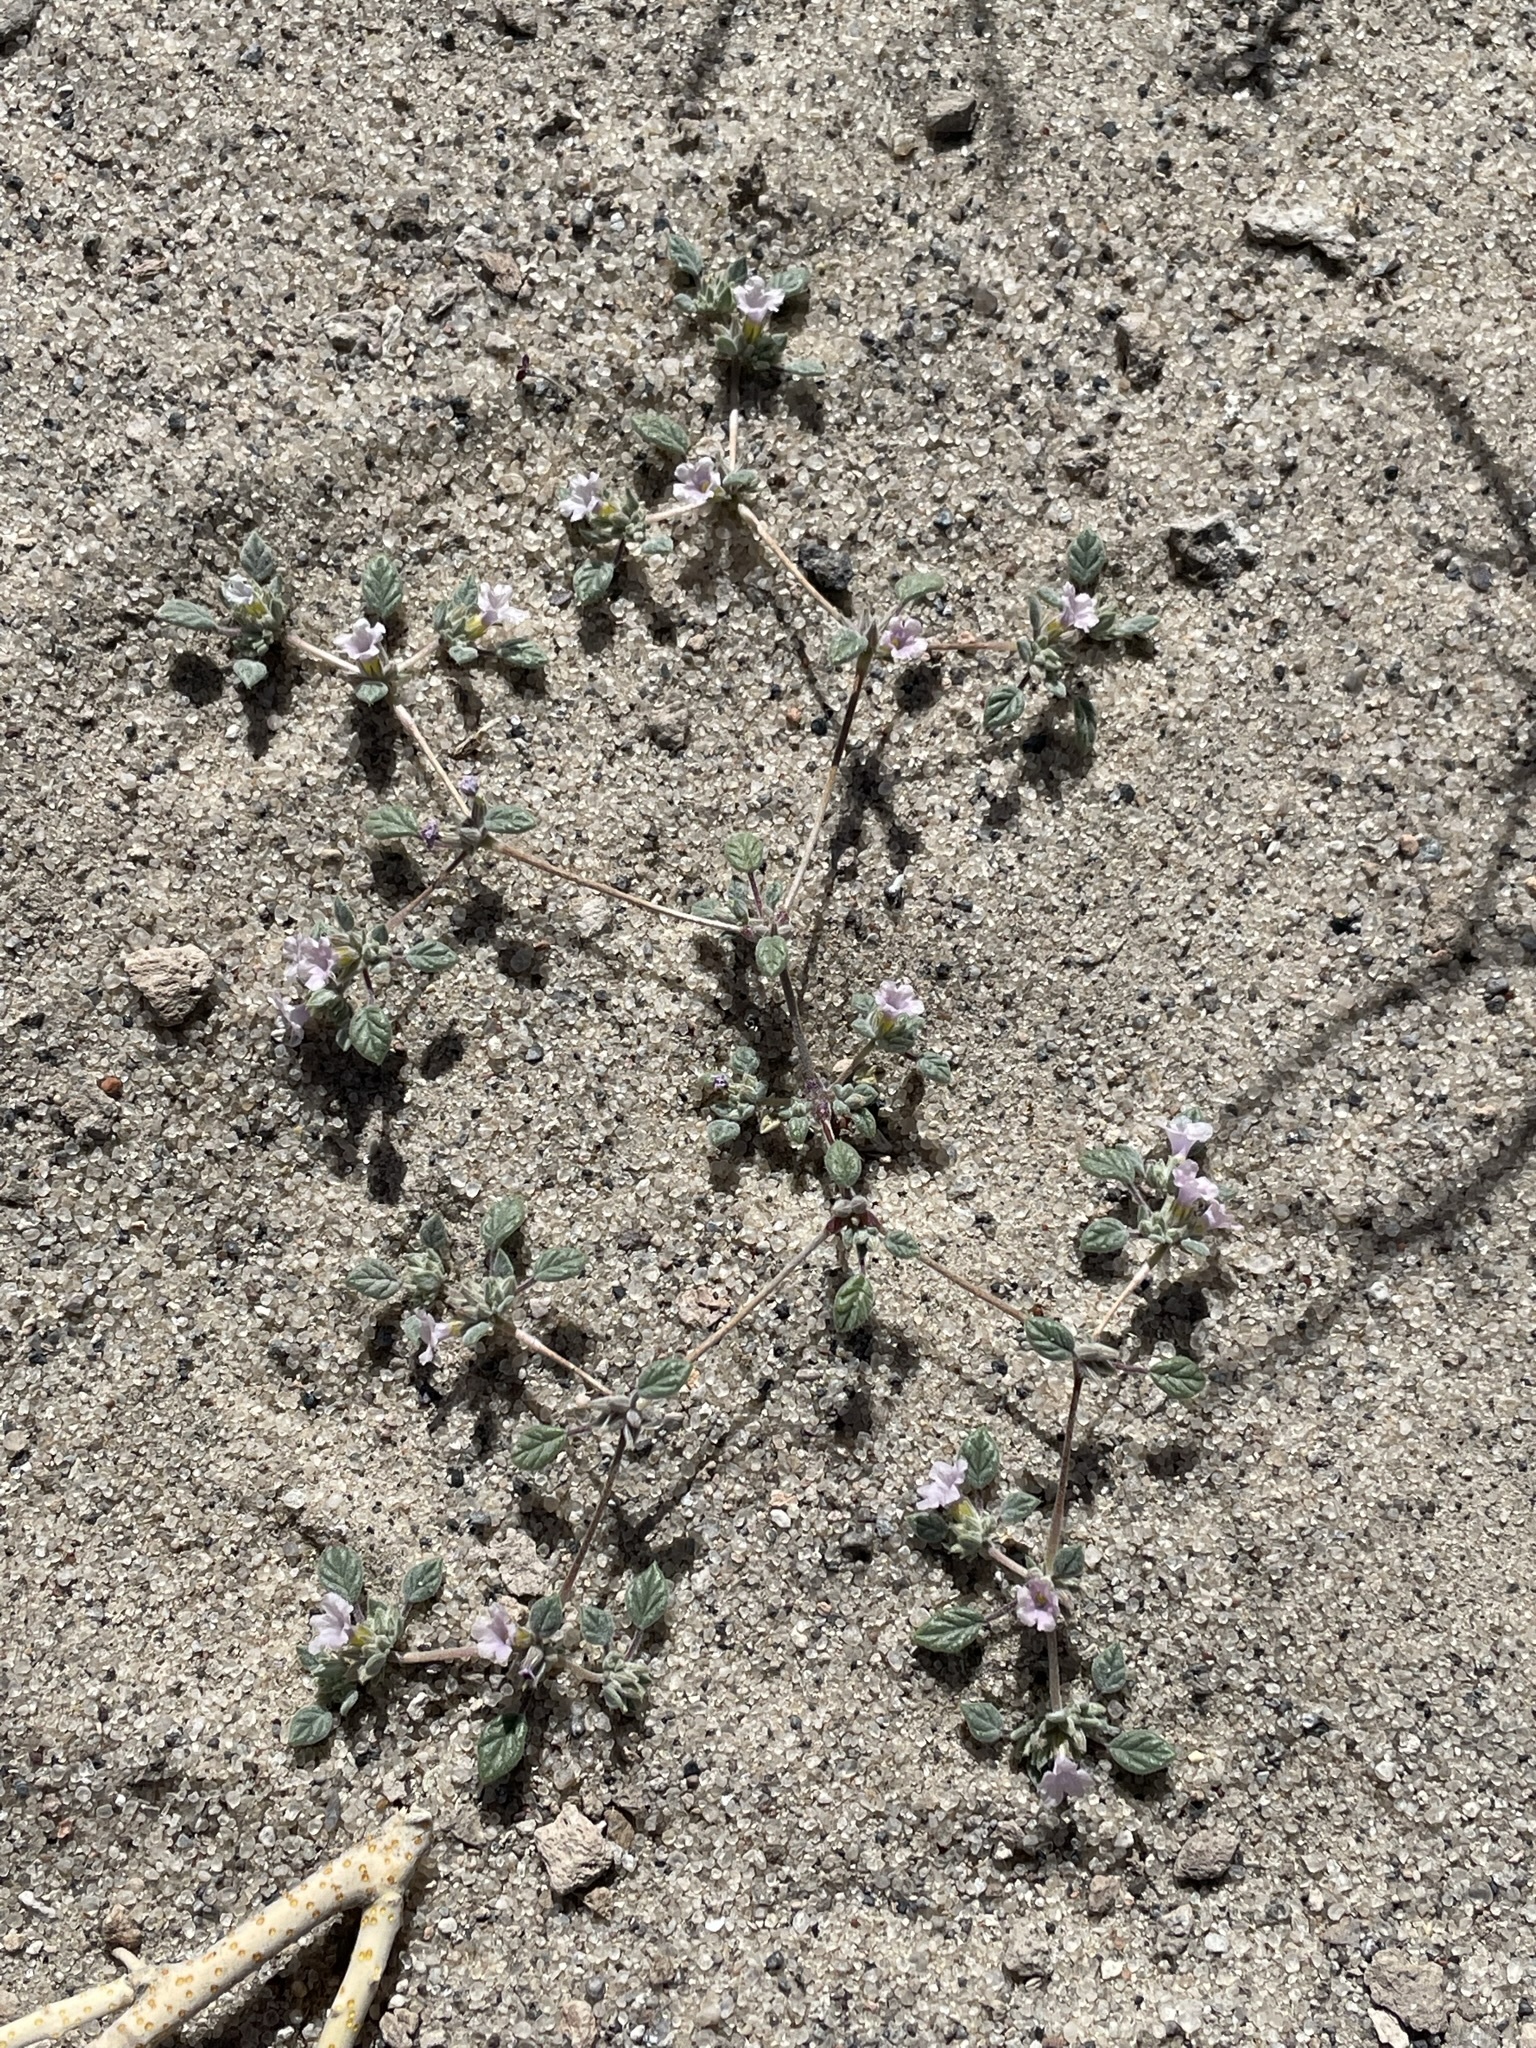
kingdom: Plantae
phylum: Tracheophyta
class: Magnoliopsida
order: Boraginales
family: Ehretiaceae
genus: Tiquilia
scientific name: Tiquilia nuttallii
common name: Rosette tiquilia
